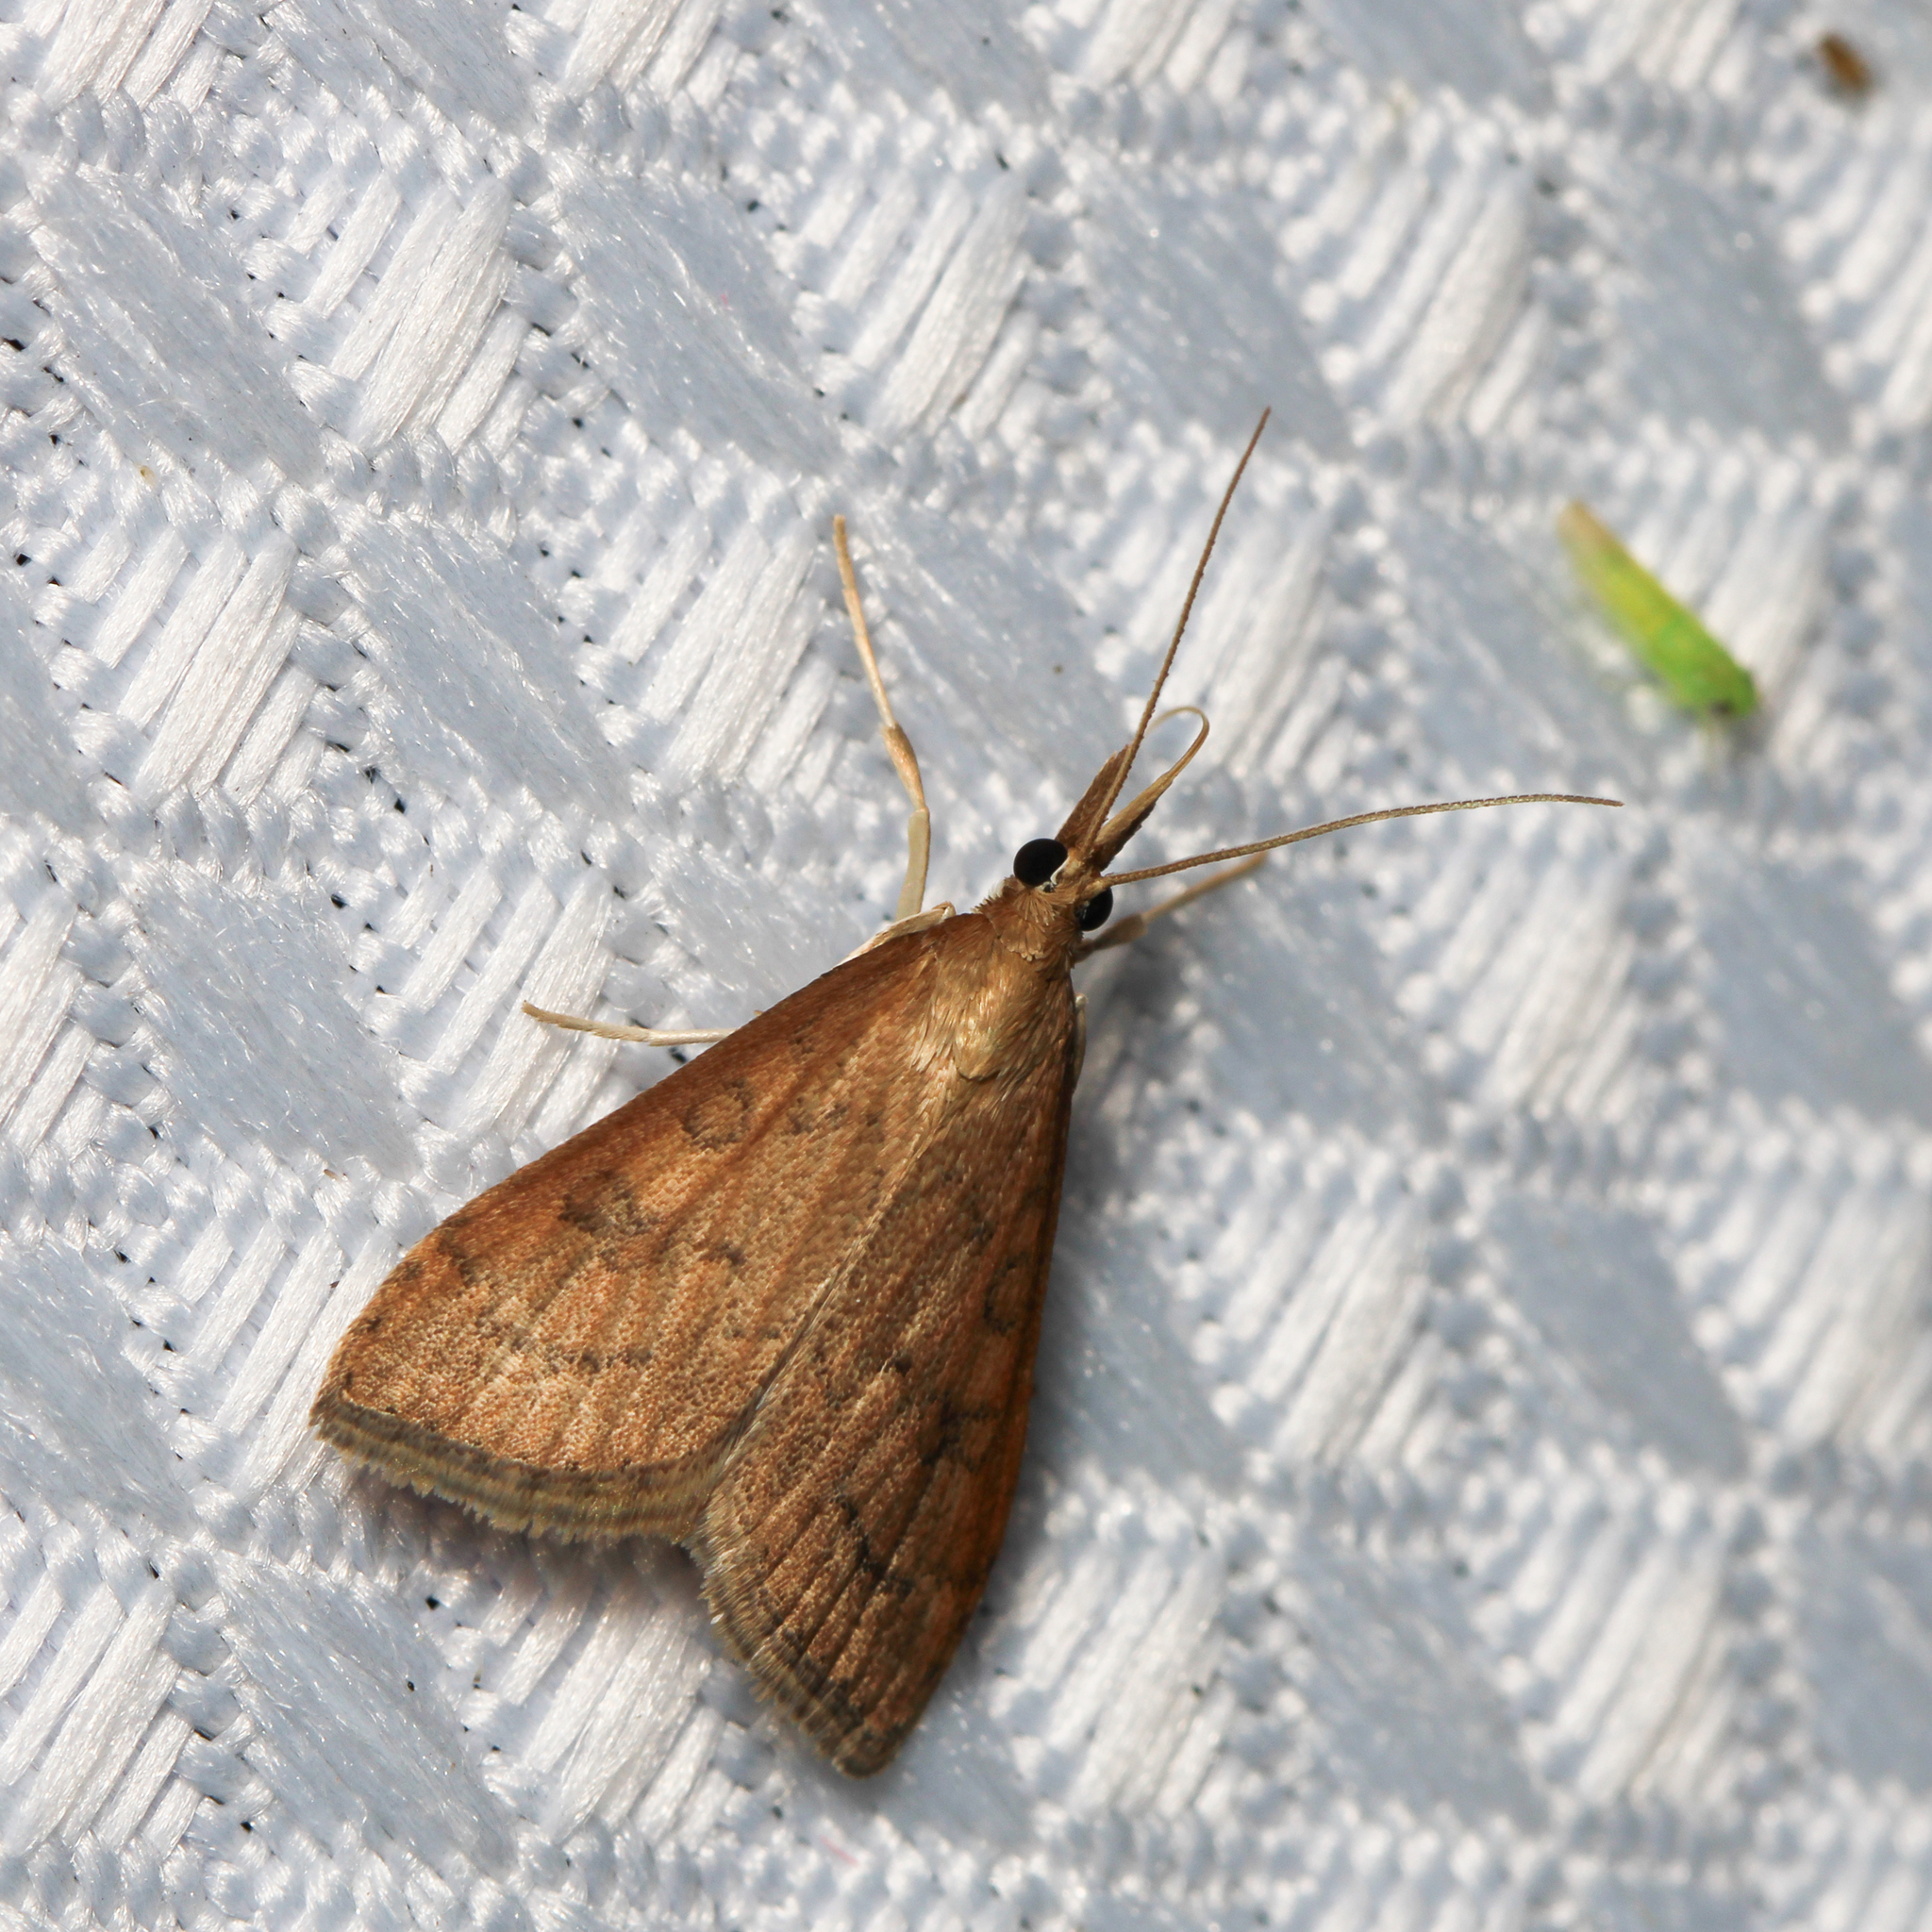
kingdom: Animalia
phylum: Arthropoda
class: Insecta
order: Lepidoptera
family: Crambidae
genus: Udea
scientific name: Udea rubigalis
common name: Celery leaftier moth
